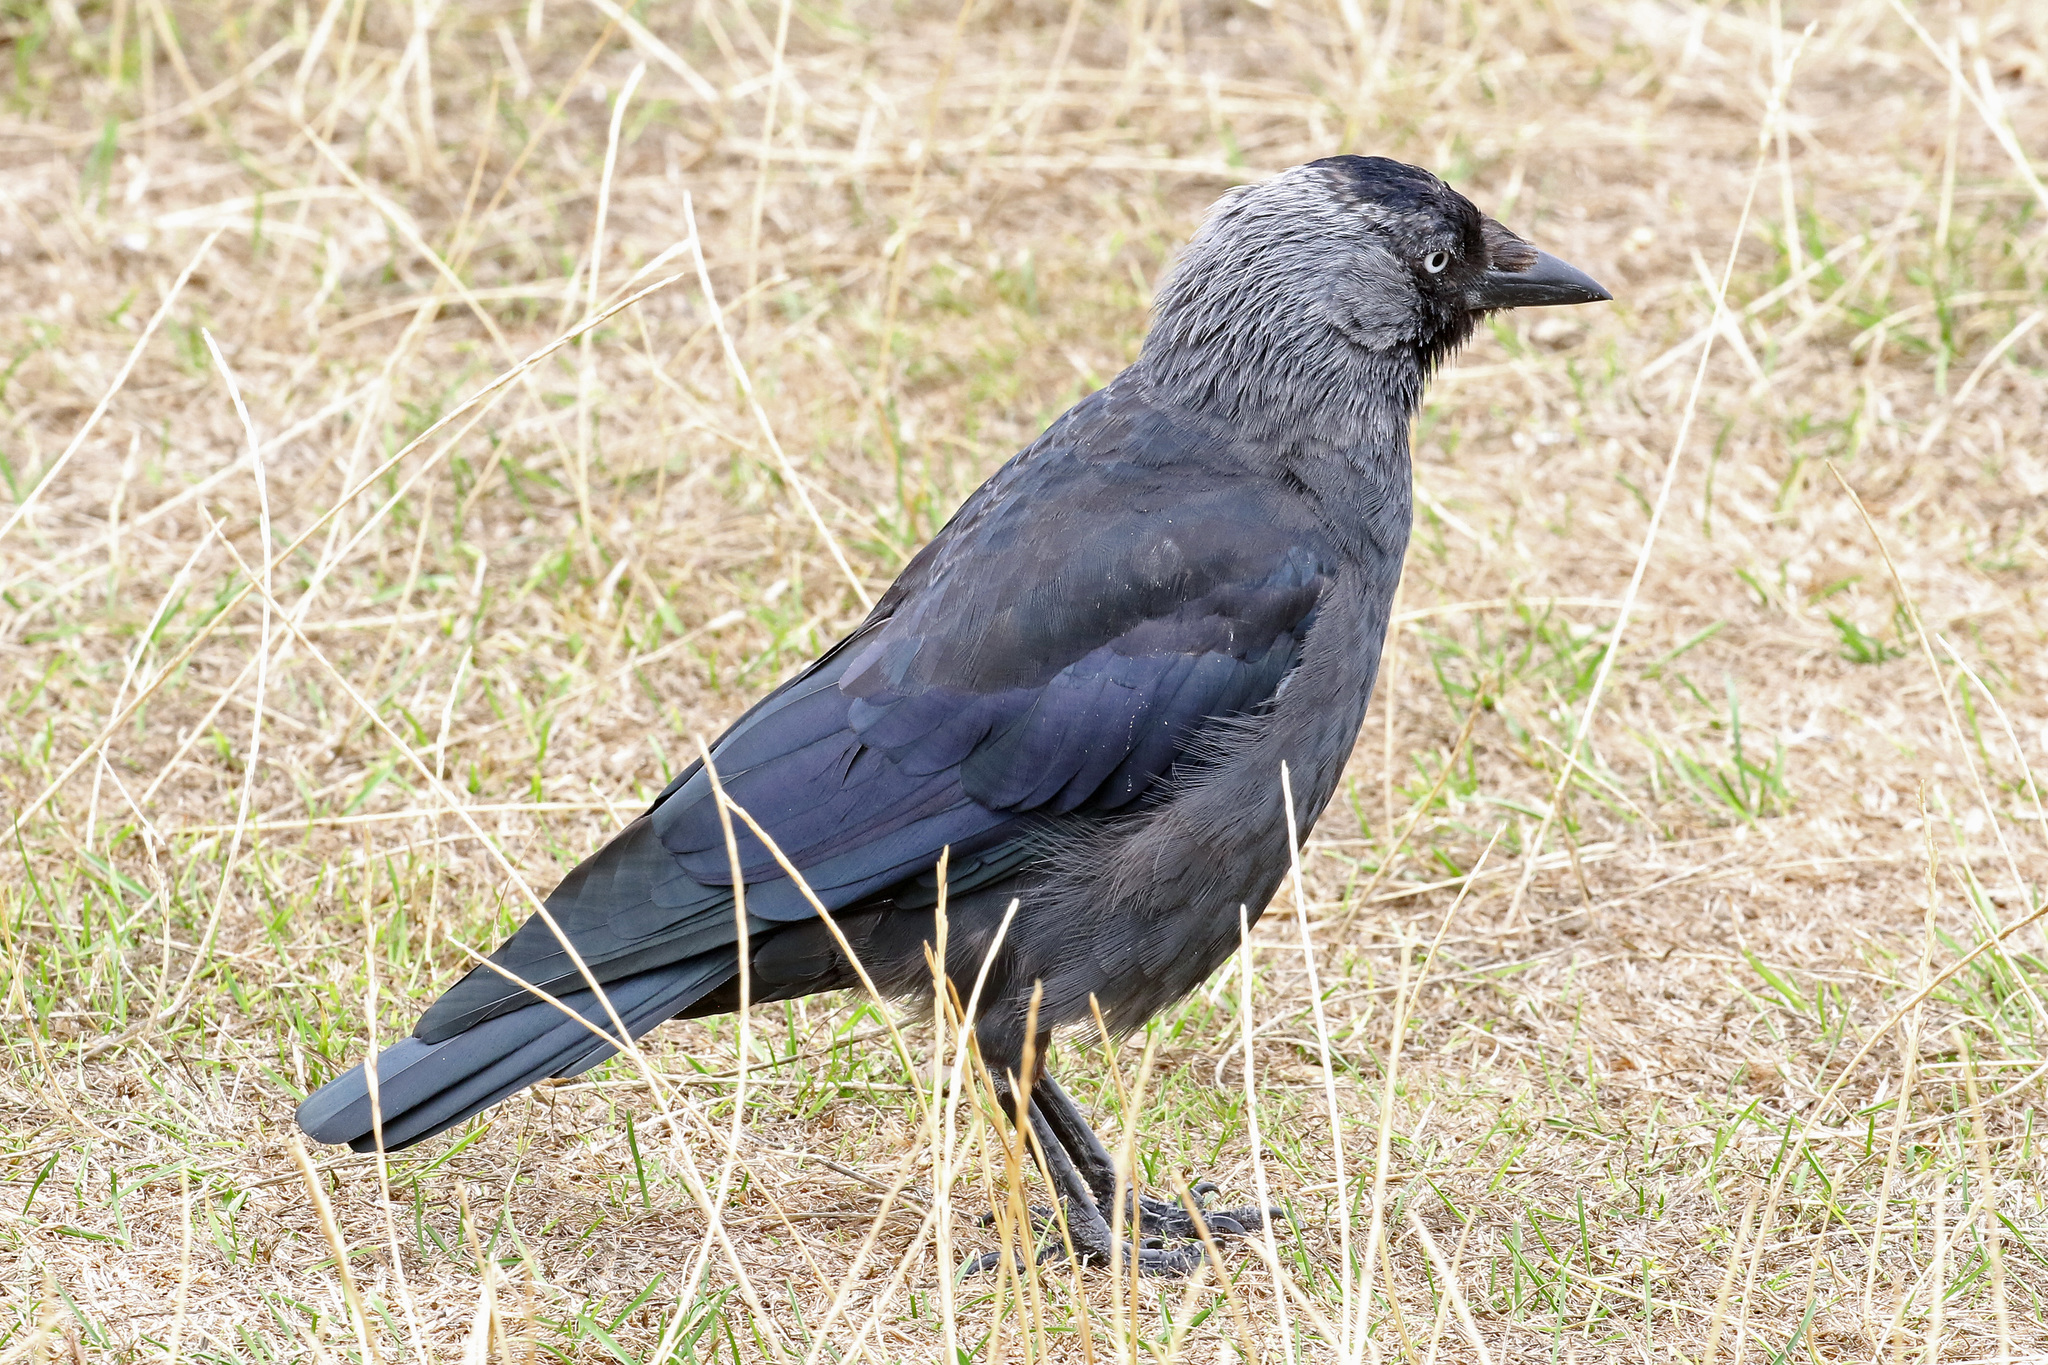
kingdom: Animalia
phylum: Chordata
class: Aves
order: Passeriformes
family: Corvidae
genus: Coloeus
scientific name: Coloeus monedula
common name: Western jackdaw
